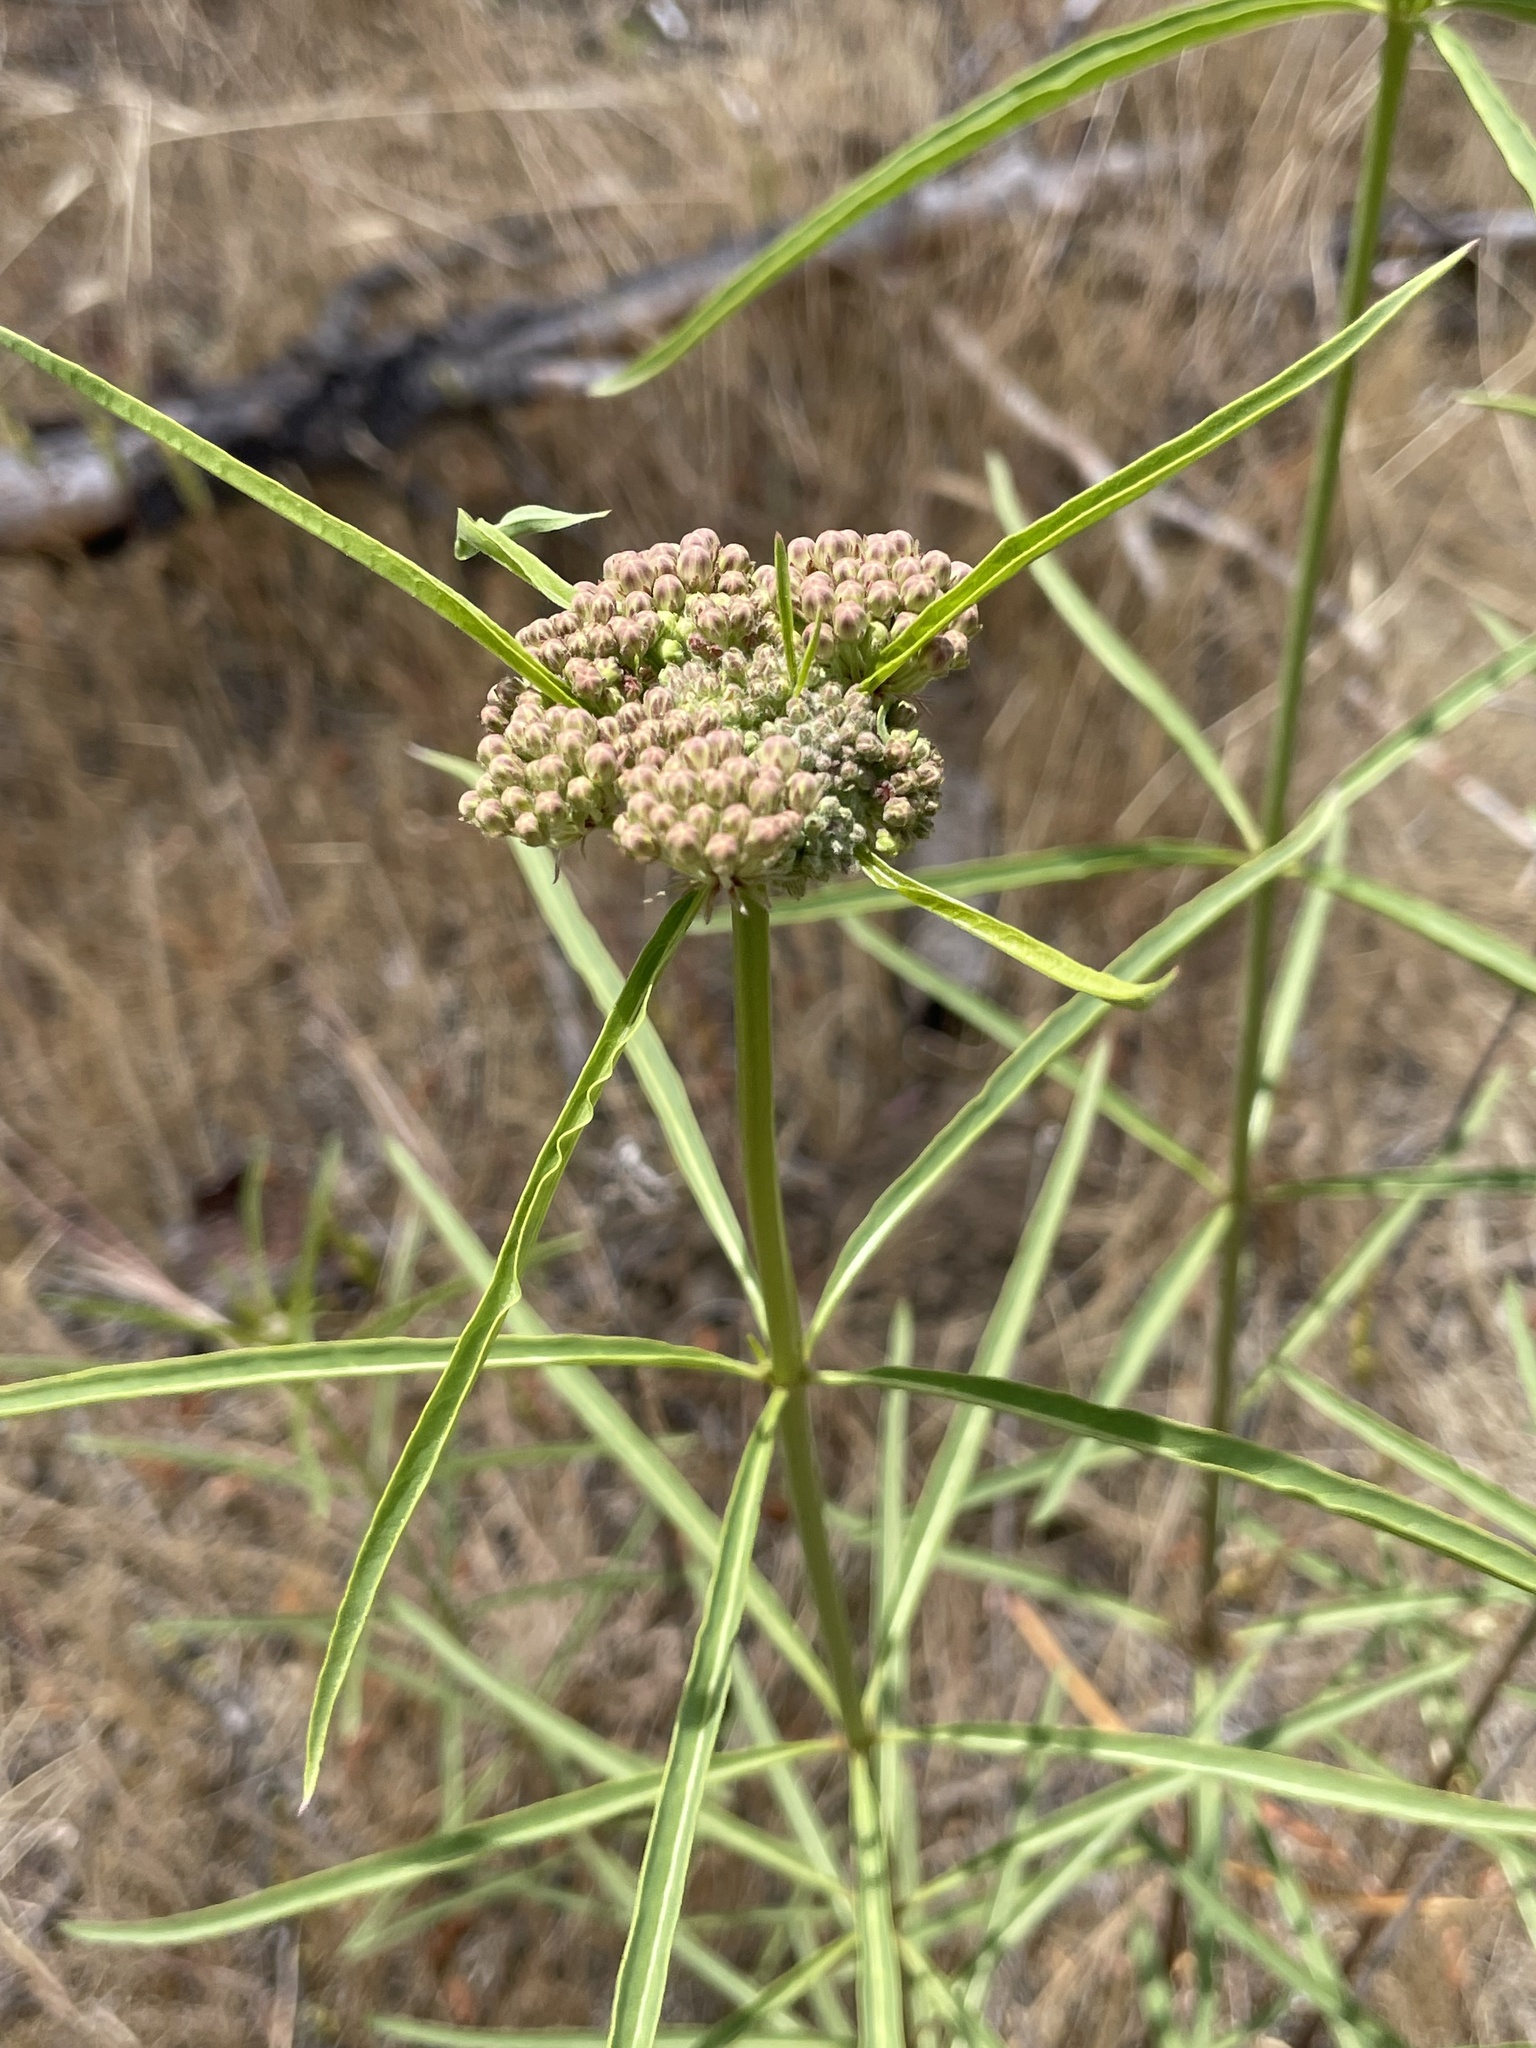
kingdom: Plantae
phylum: Tracheophyta
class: Magnoliopsida
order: Gentianales
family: Apocynaceae
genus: Asclepias
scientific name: Asclepias fascicularis
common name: Mexican milkweed
